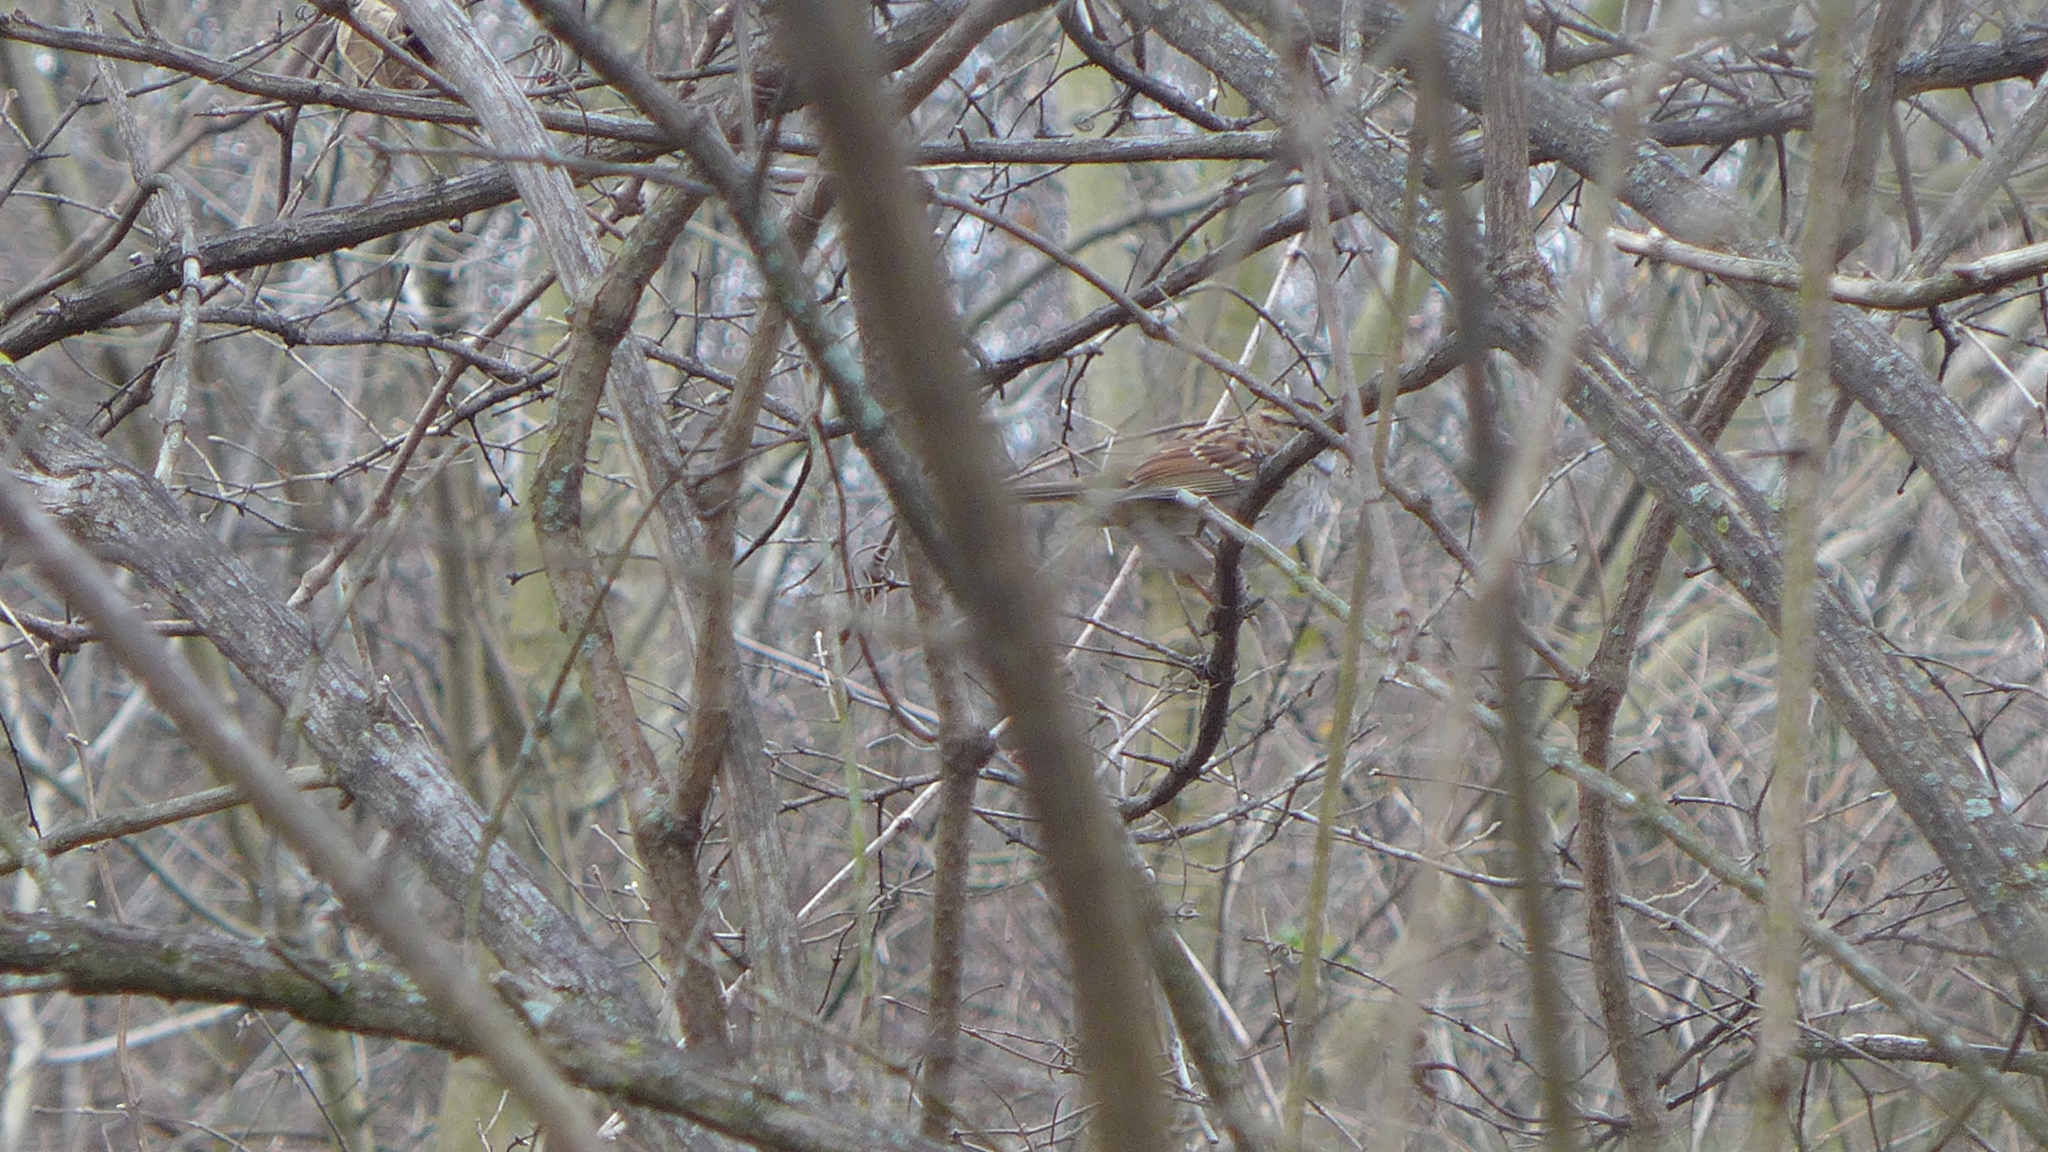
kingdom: Animalia
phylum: Chordata
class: Aves
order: Passeriformes
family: Passerellidae
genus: Zonotrichia
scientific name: Zonotrichia albicollis
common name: White-throated sparrow
